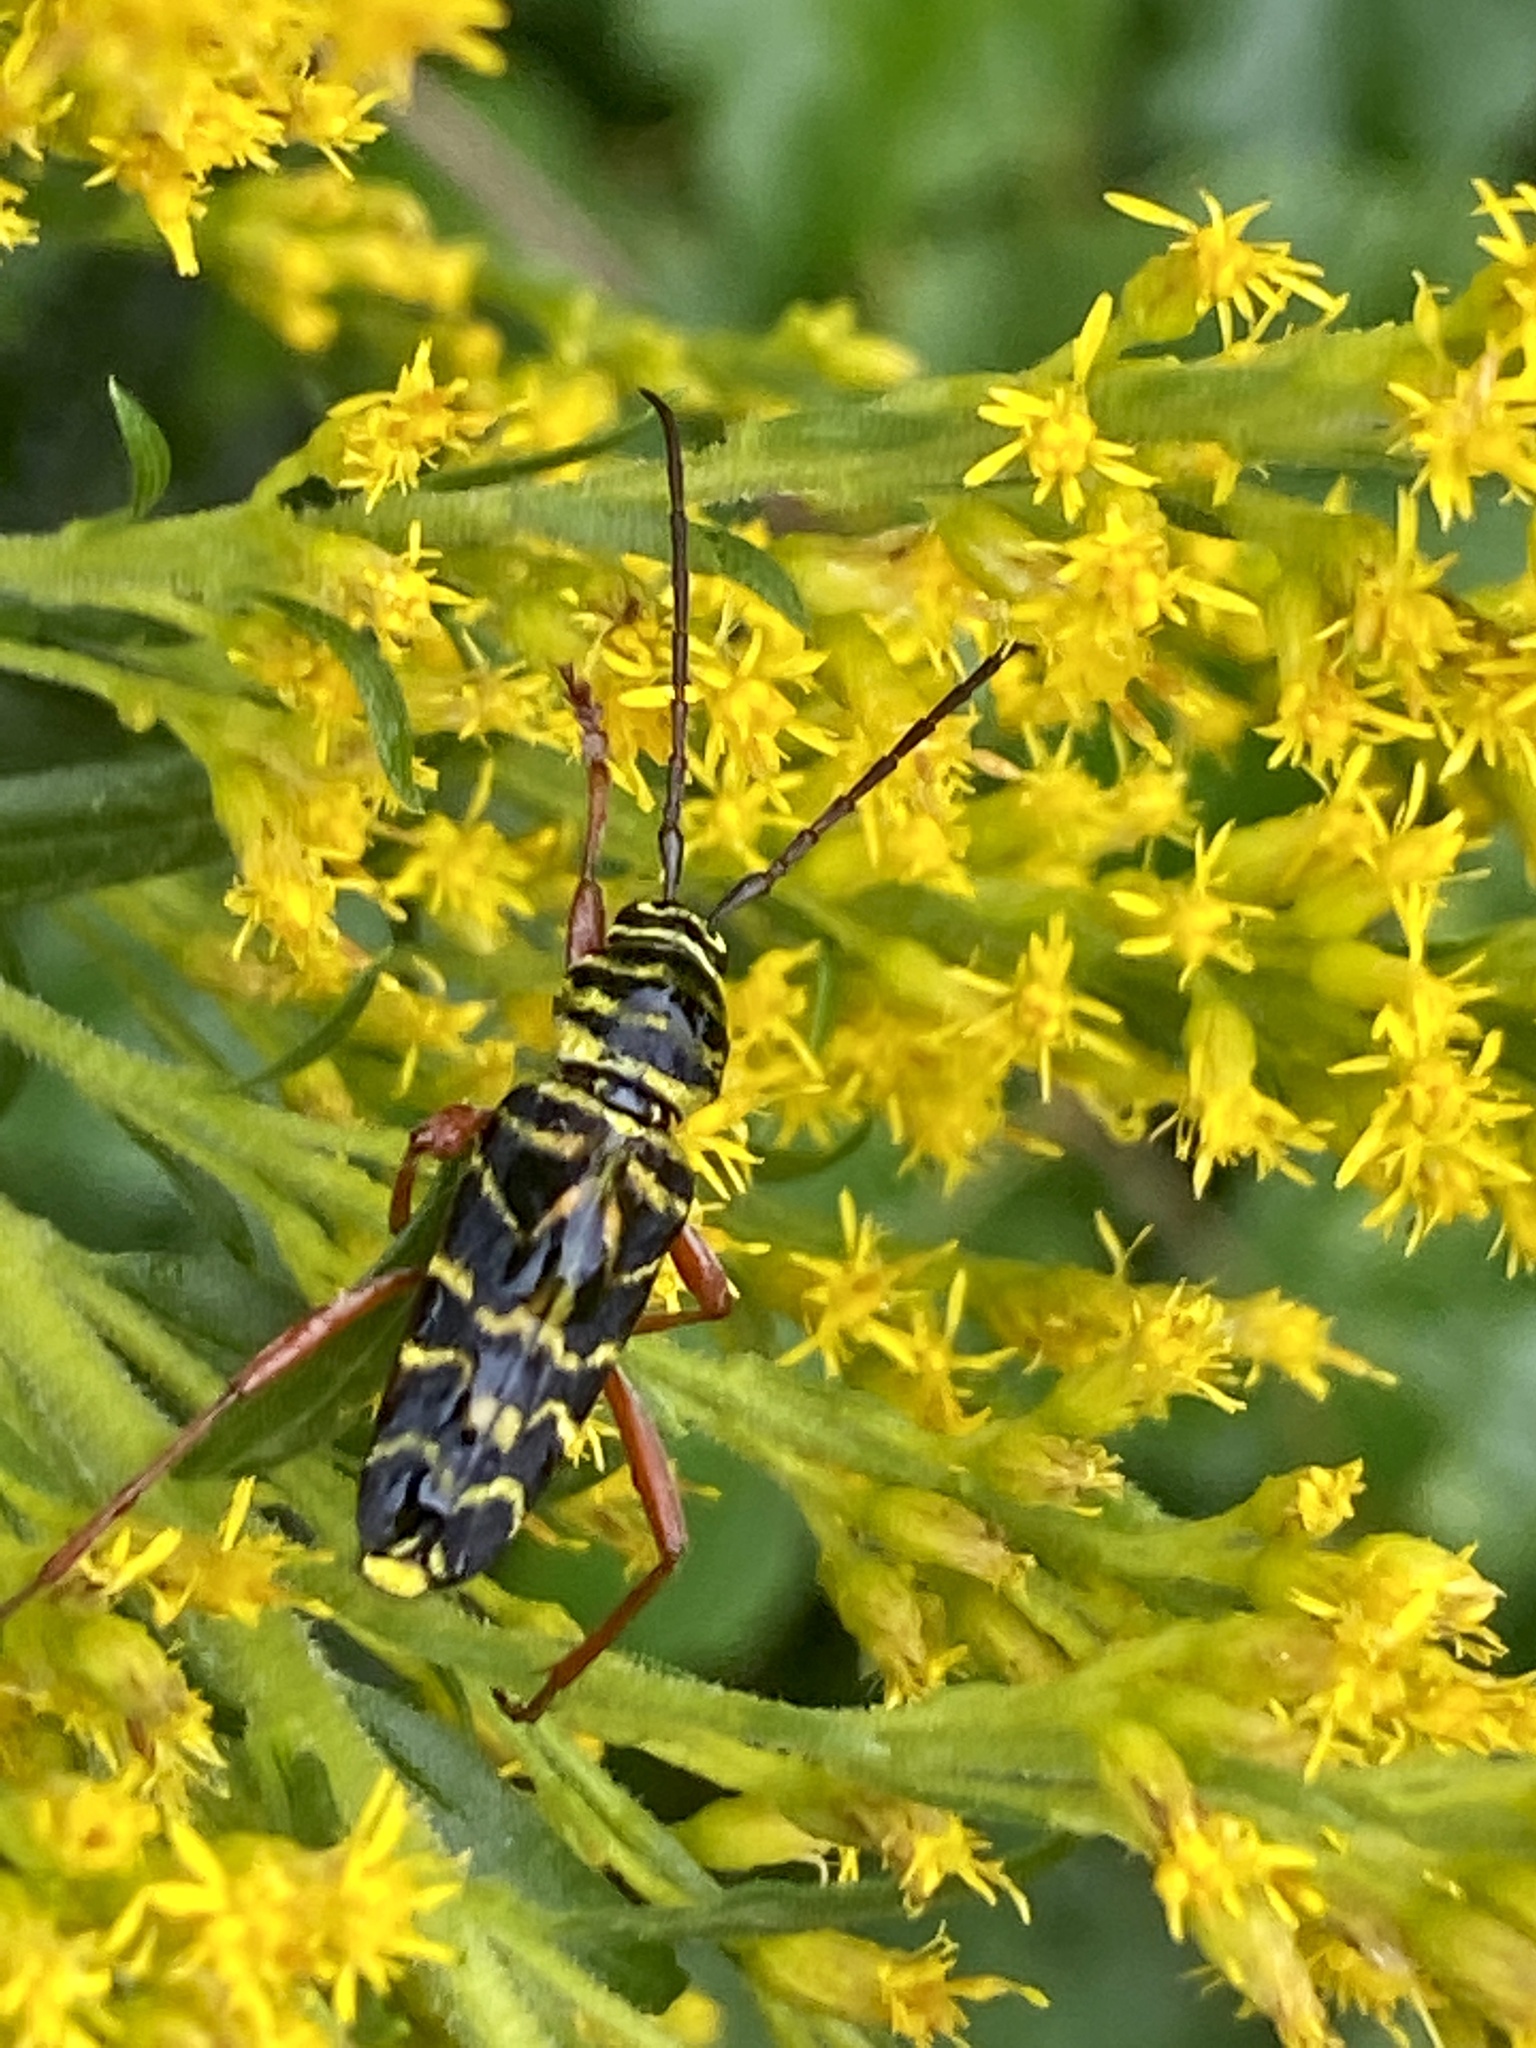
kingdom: Animalia
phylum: Arthropoda
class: Insecta
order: Coleoptera
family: Cerambycidae
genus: Megacyllene
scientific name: Megacyllene robiniae
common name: Locust borer
